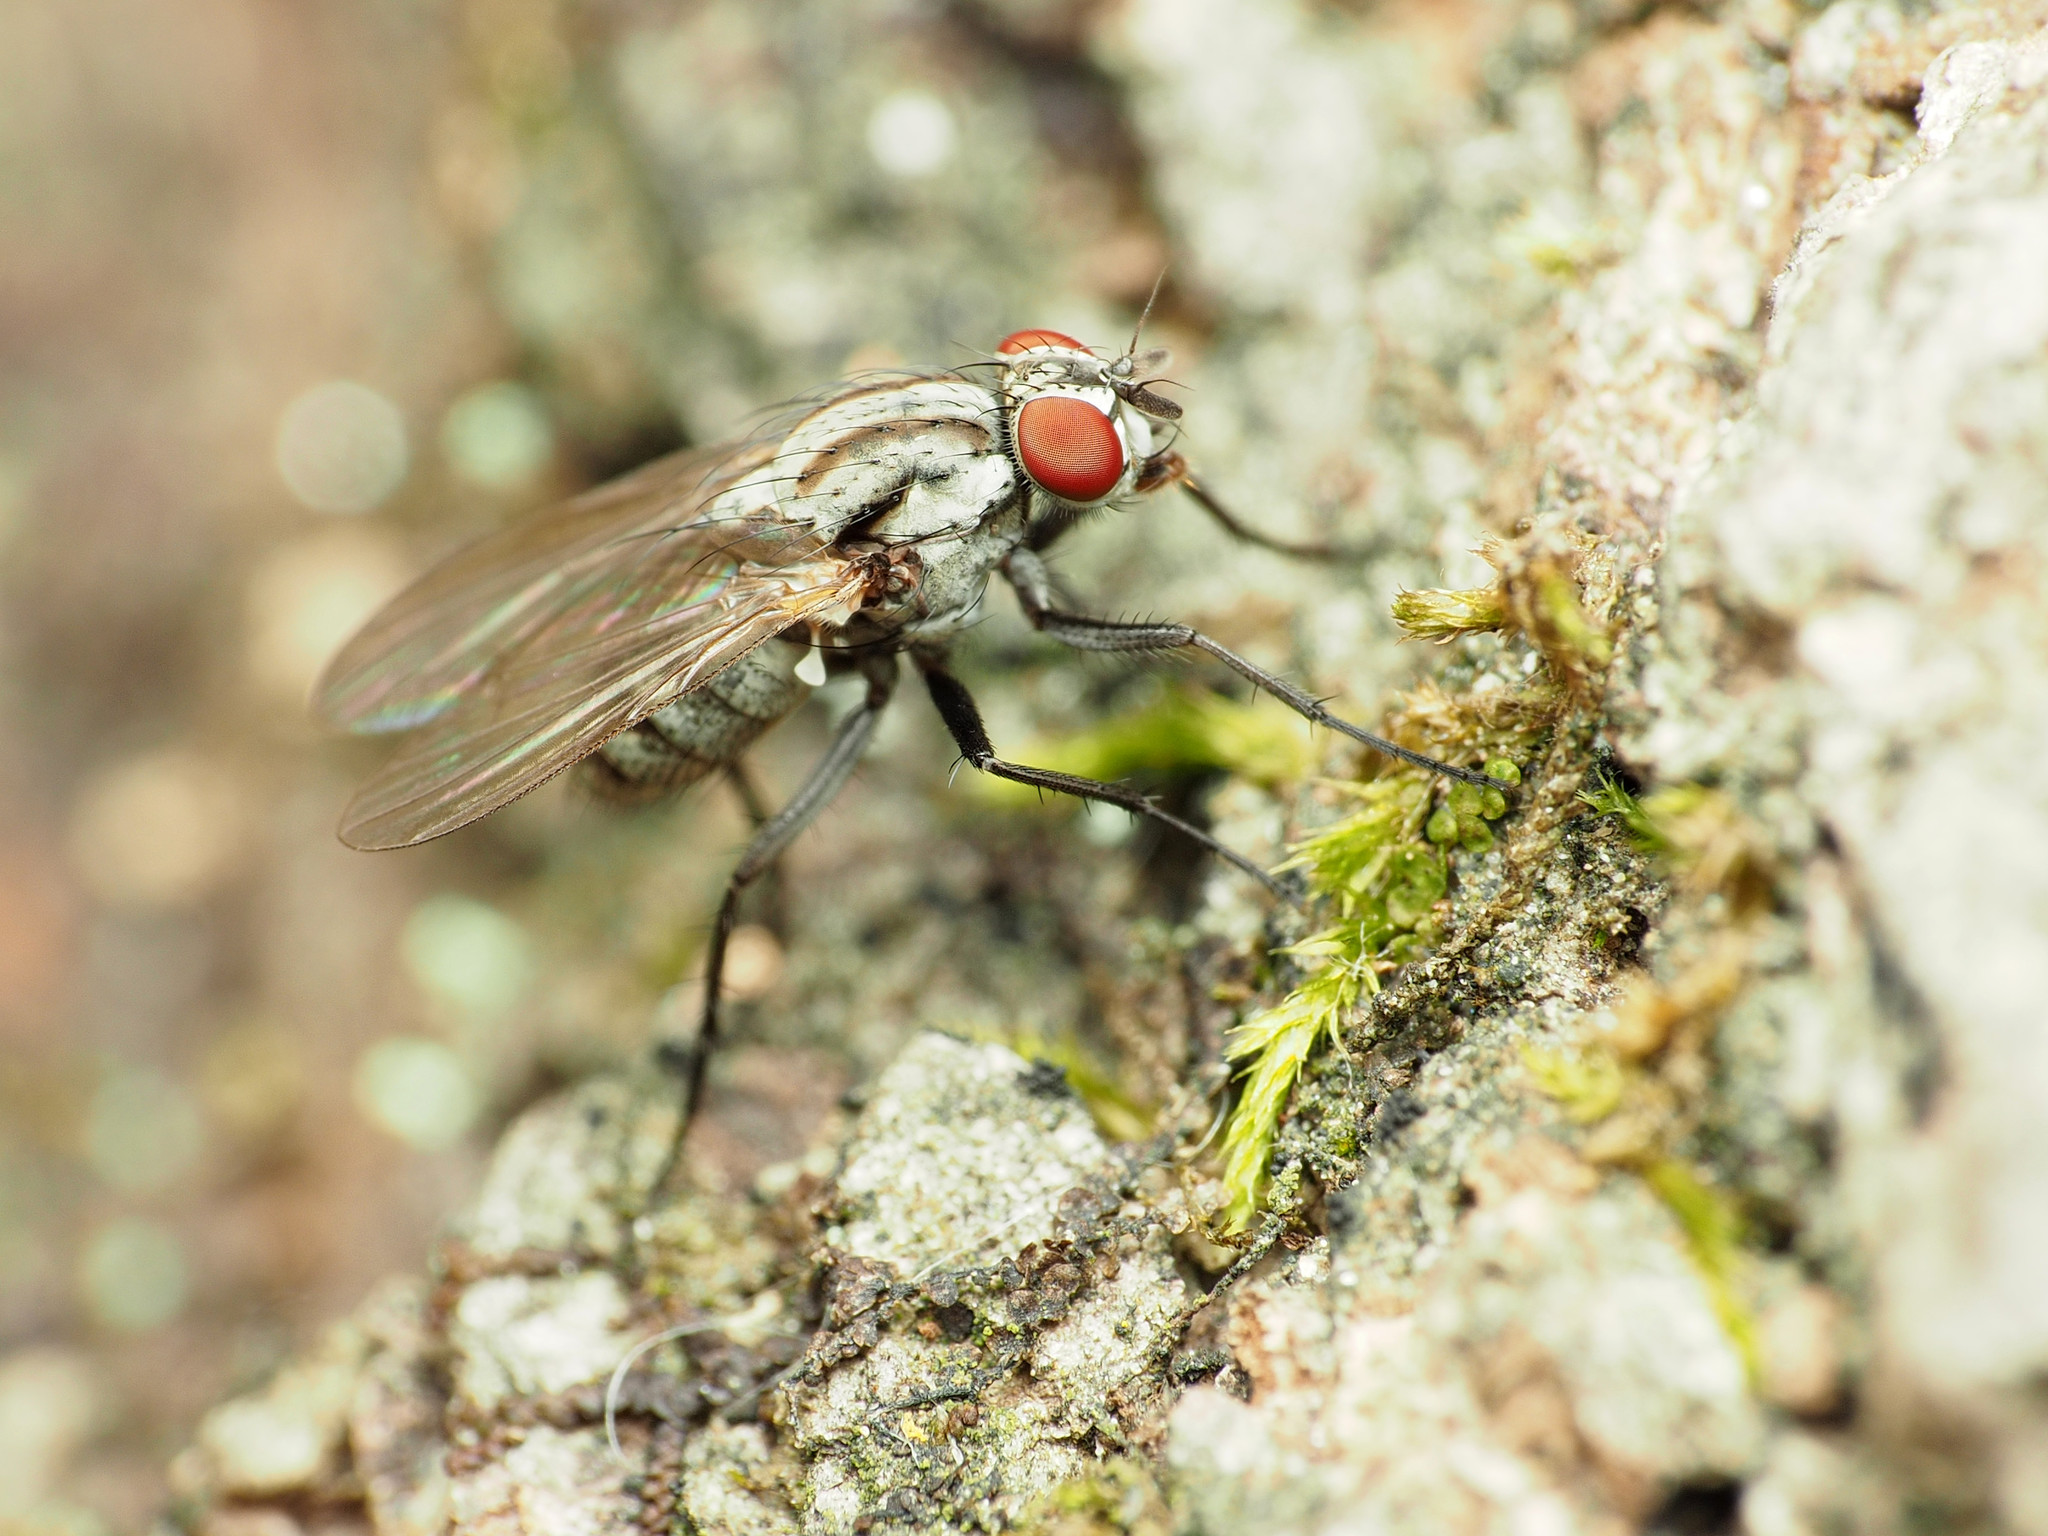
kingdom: Animalia
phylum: Arthropoda
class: Insecta
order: Diptera
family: Anthomyiidae
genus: Anthomyia
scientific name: Anthomyia oculifera
